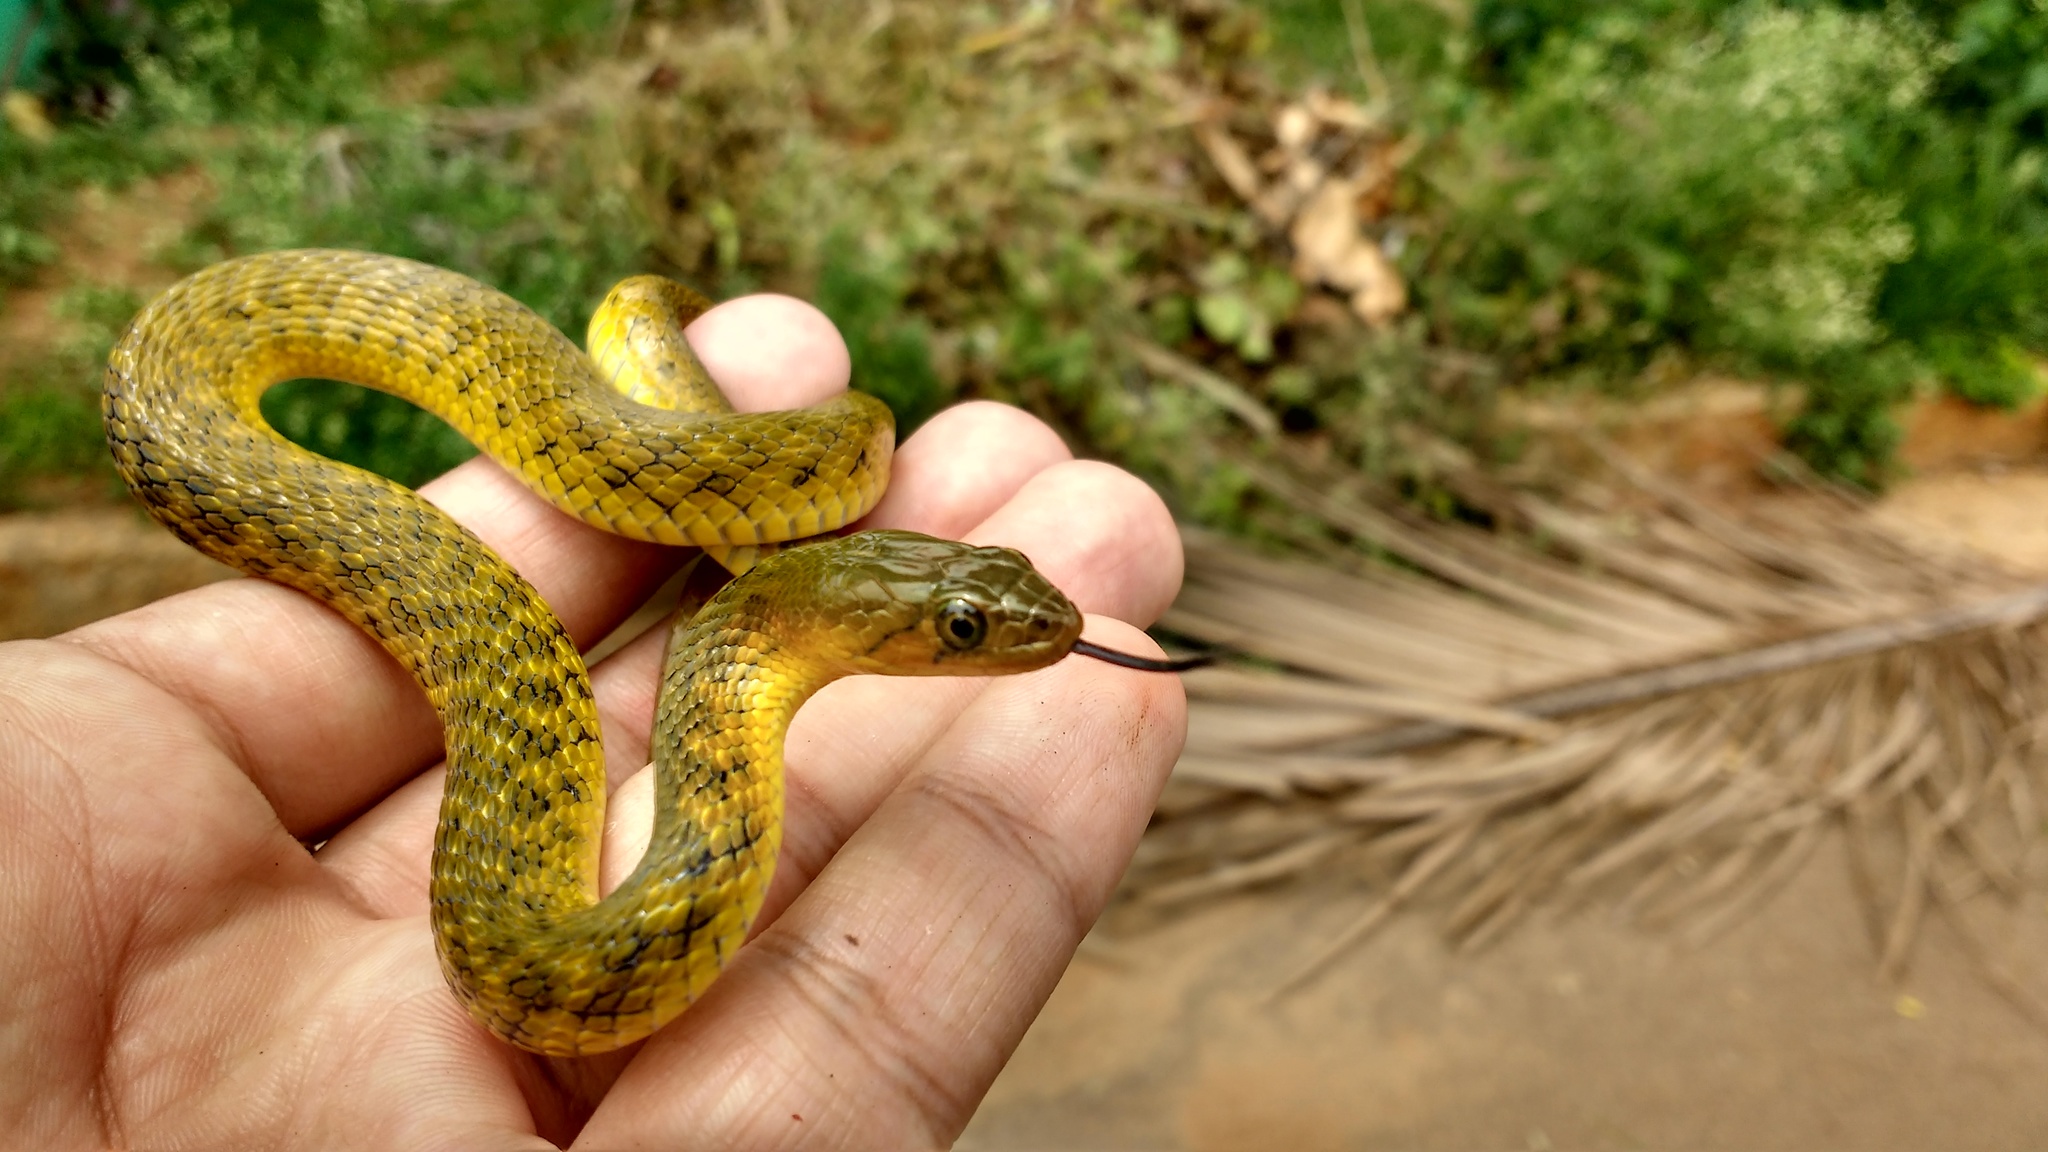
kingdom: Animalia
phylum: Chordata
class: Squamata
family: Colubridae
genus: Fowlea
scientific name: Fowlea piscator
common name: Asiatic water snake
